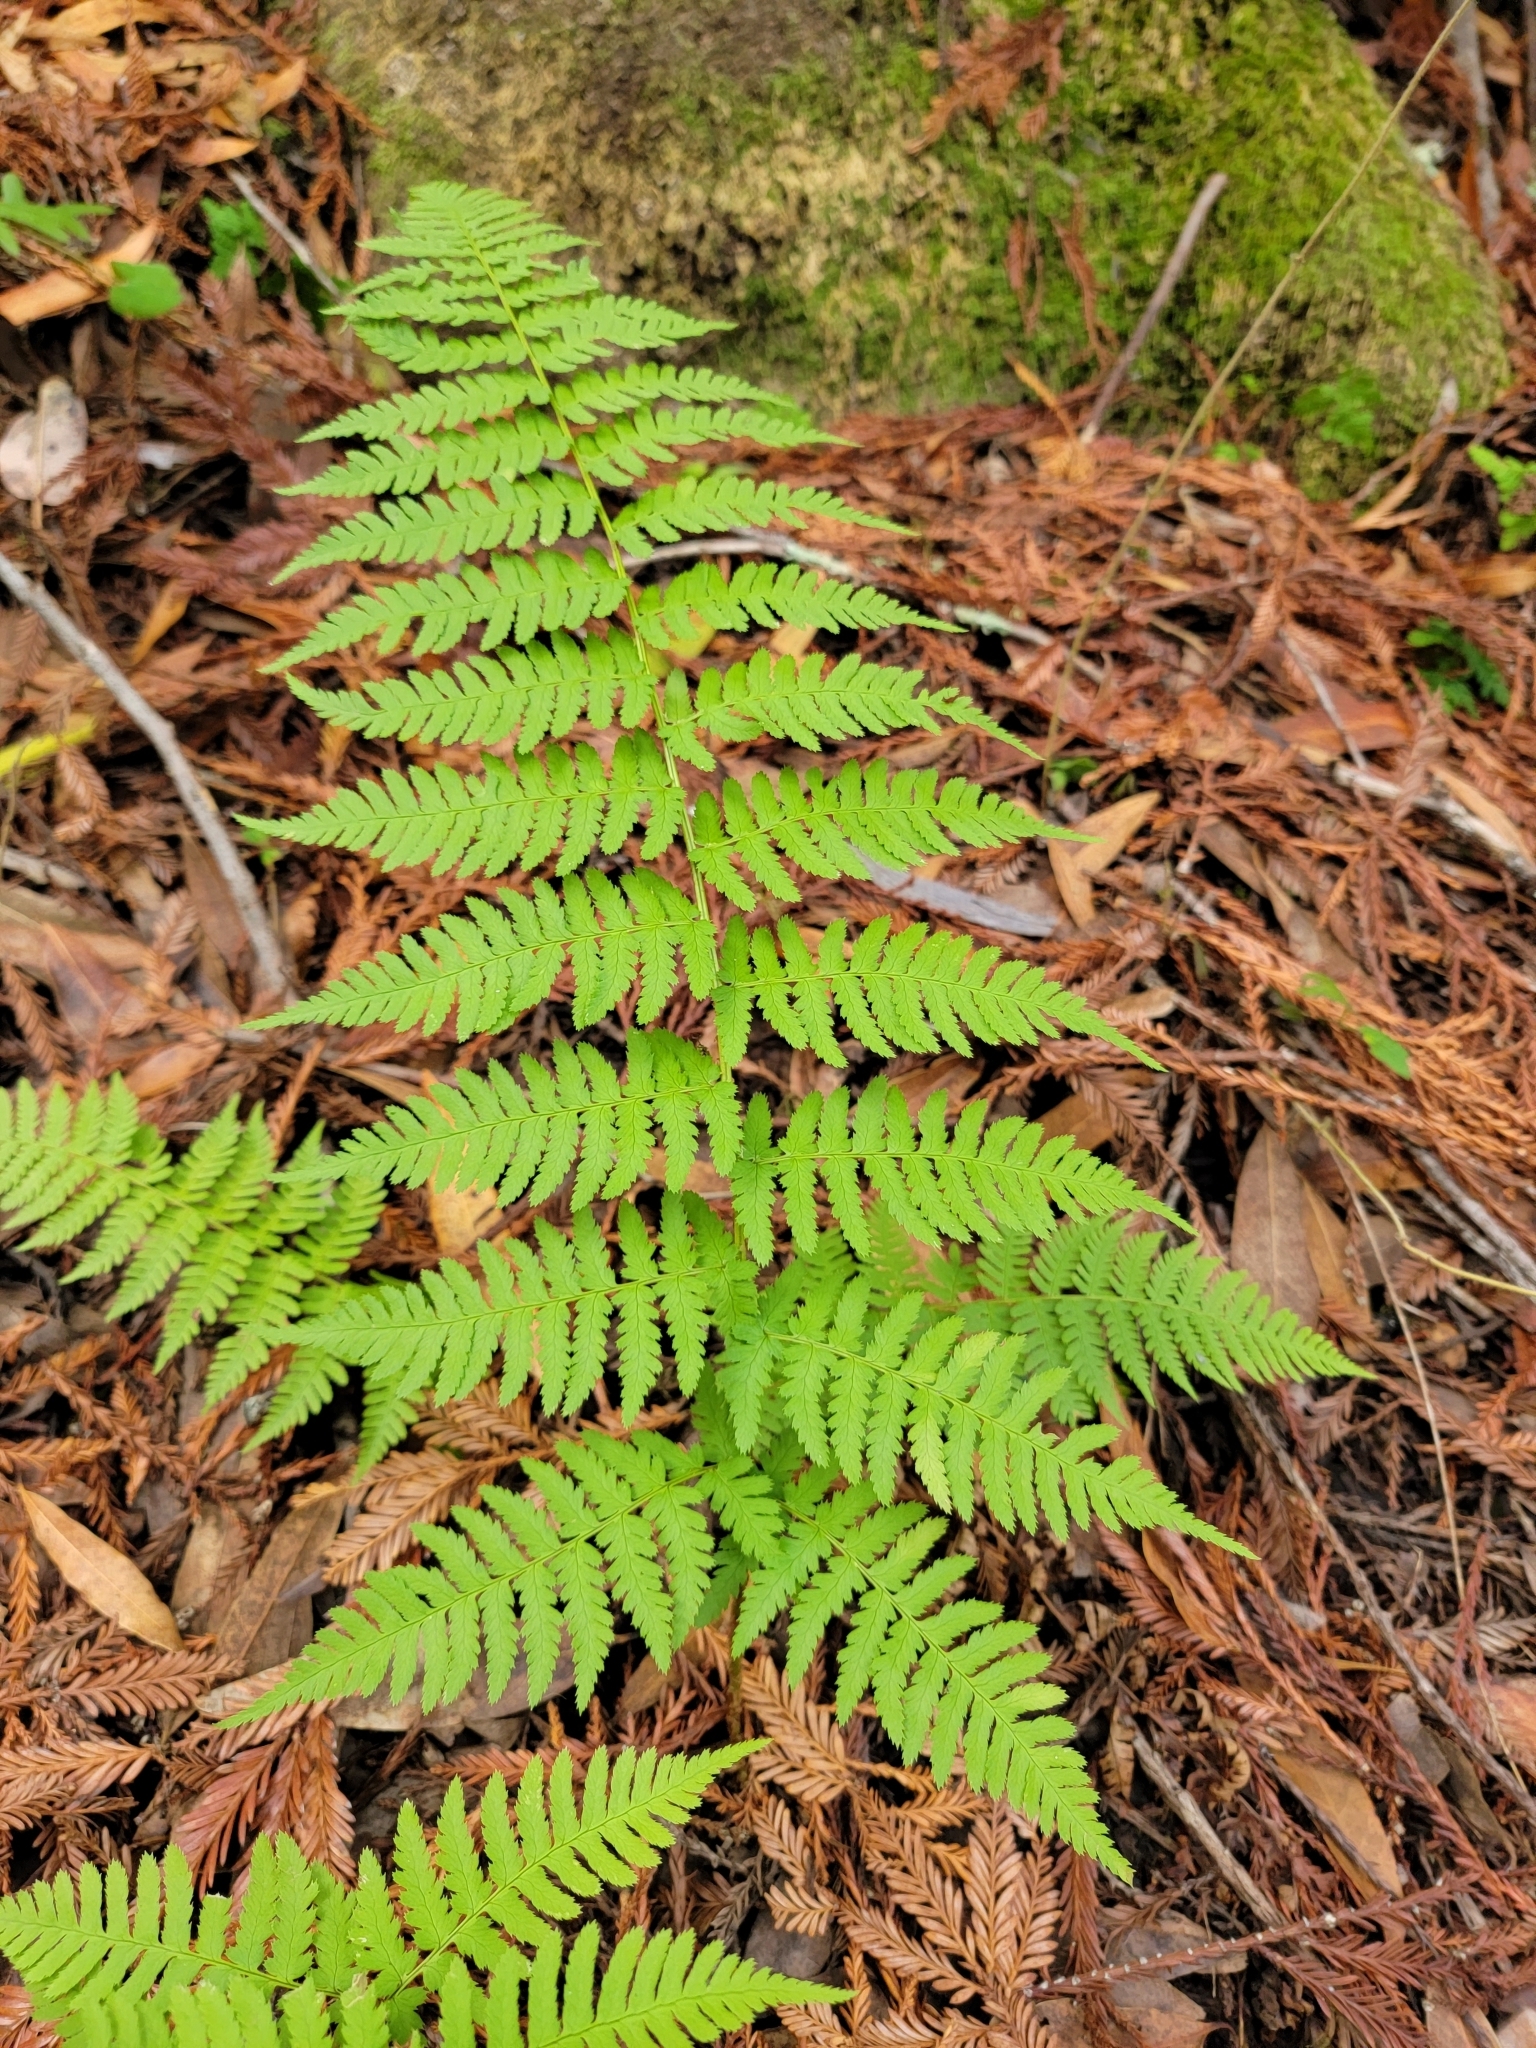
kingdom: Plantae
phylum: Tracheophyta
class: Polypodiopsida
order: Polypodiales
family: Dryopteridaceae
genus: Dryopteris
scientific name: Dryopteris arguta
